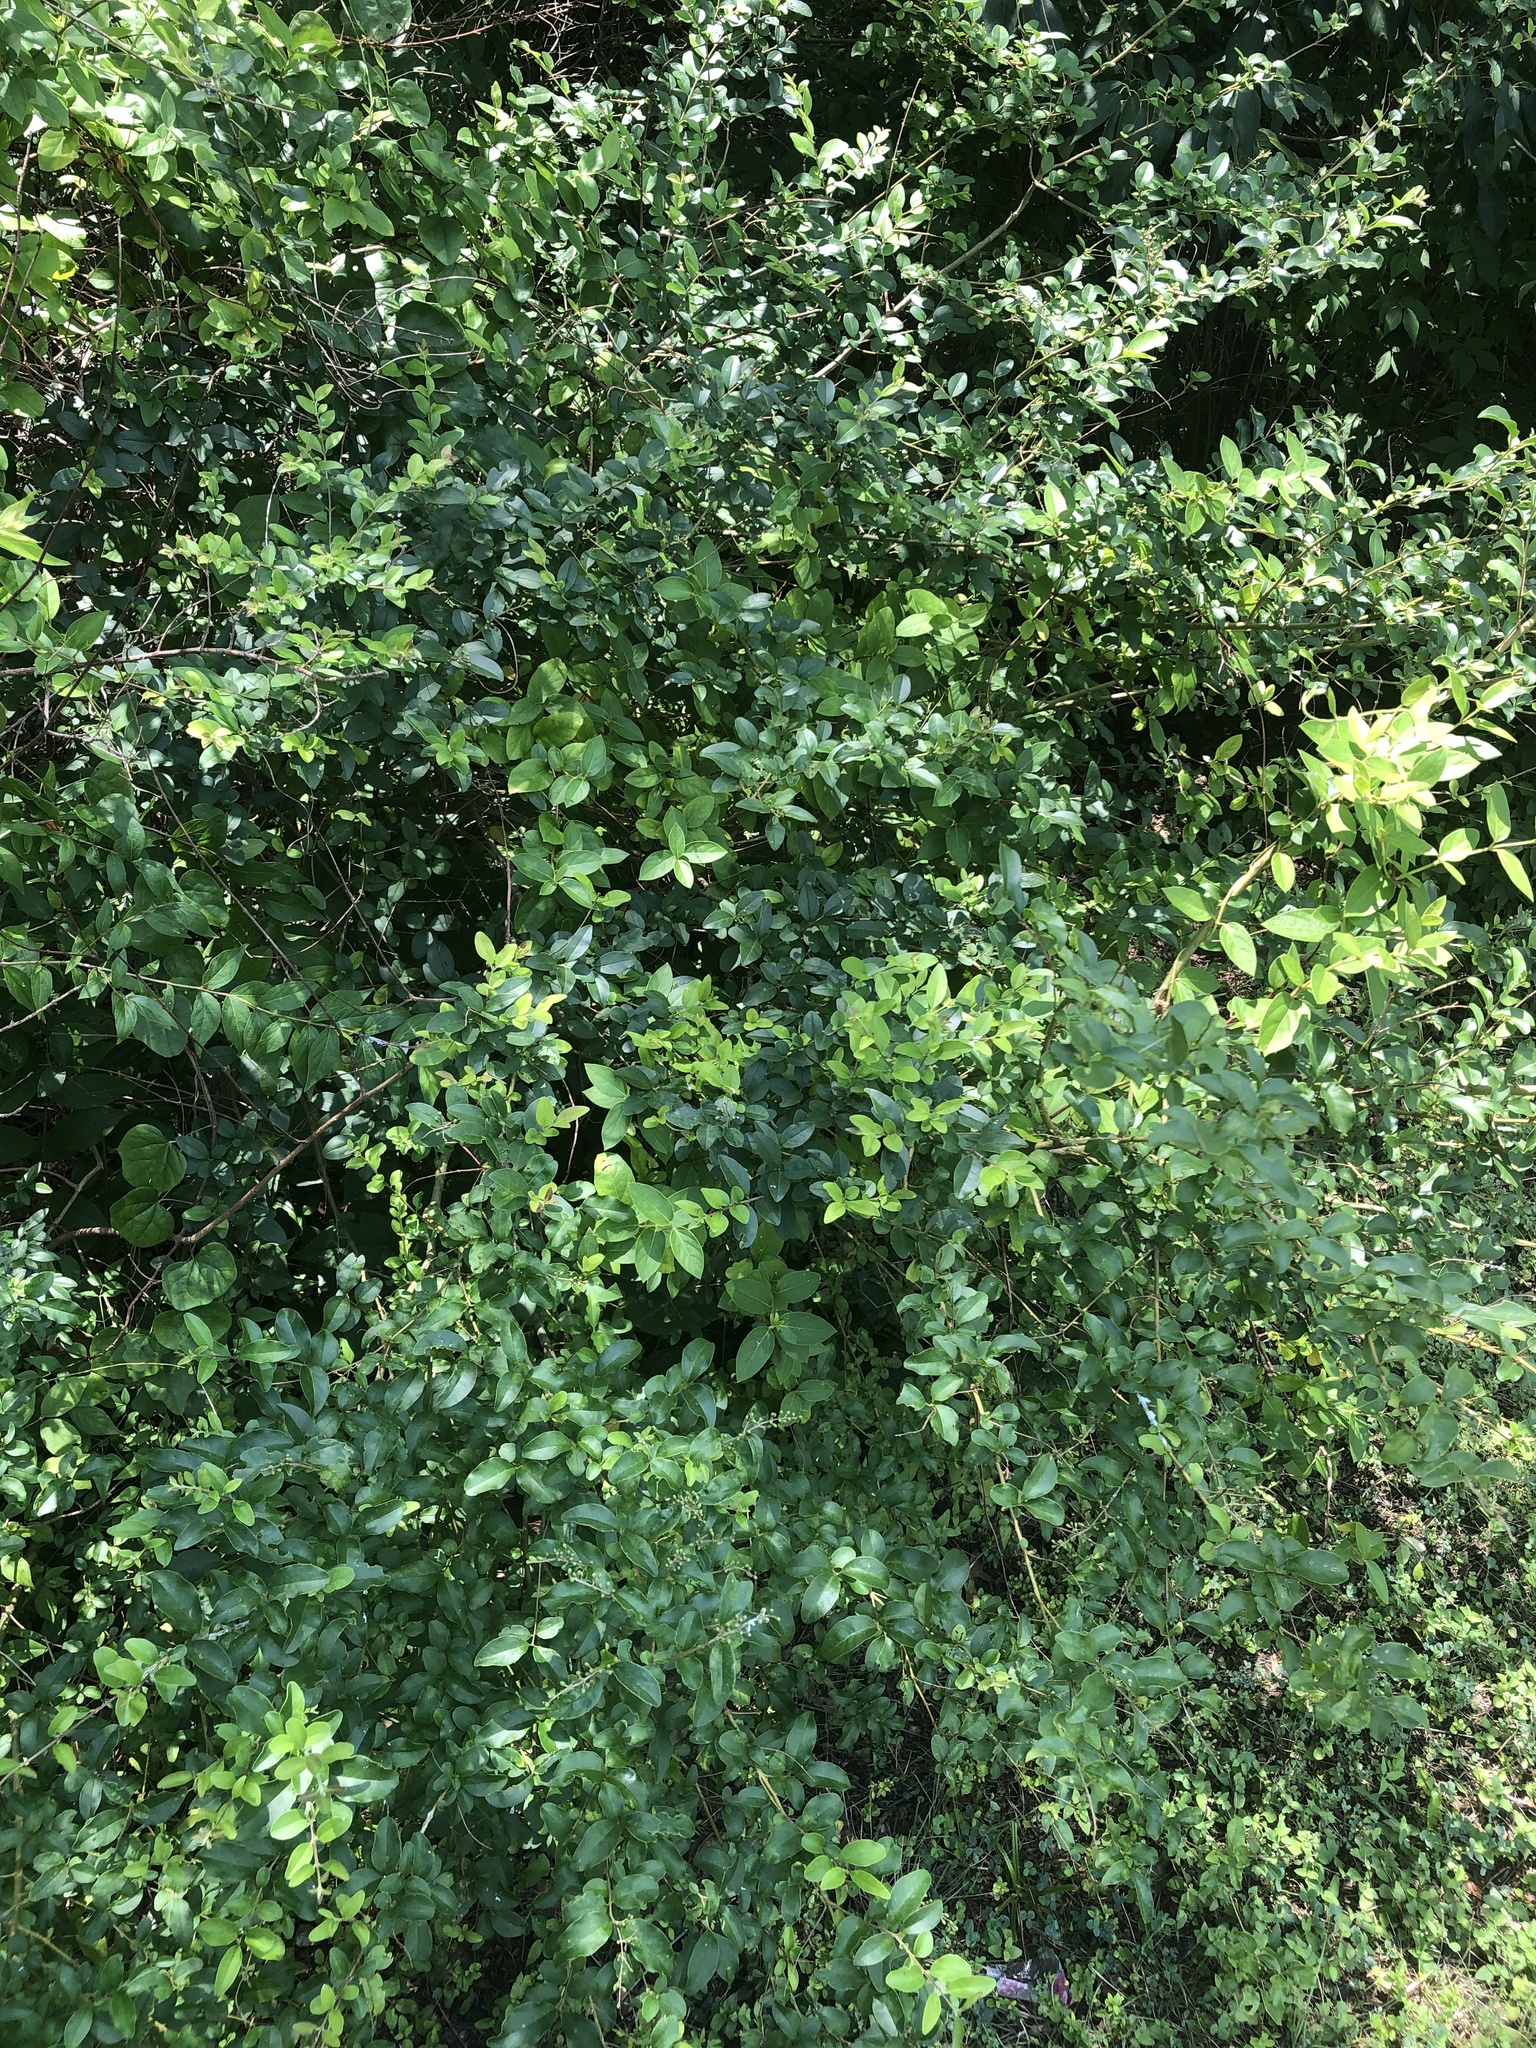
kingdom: Plantae
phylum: Tracheophyta
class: Magnoliopsida
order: Lamiales
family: Oleaceae
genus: Ligustrum
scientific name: Ligustrum sinense
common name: Chinese privet
